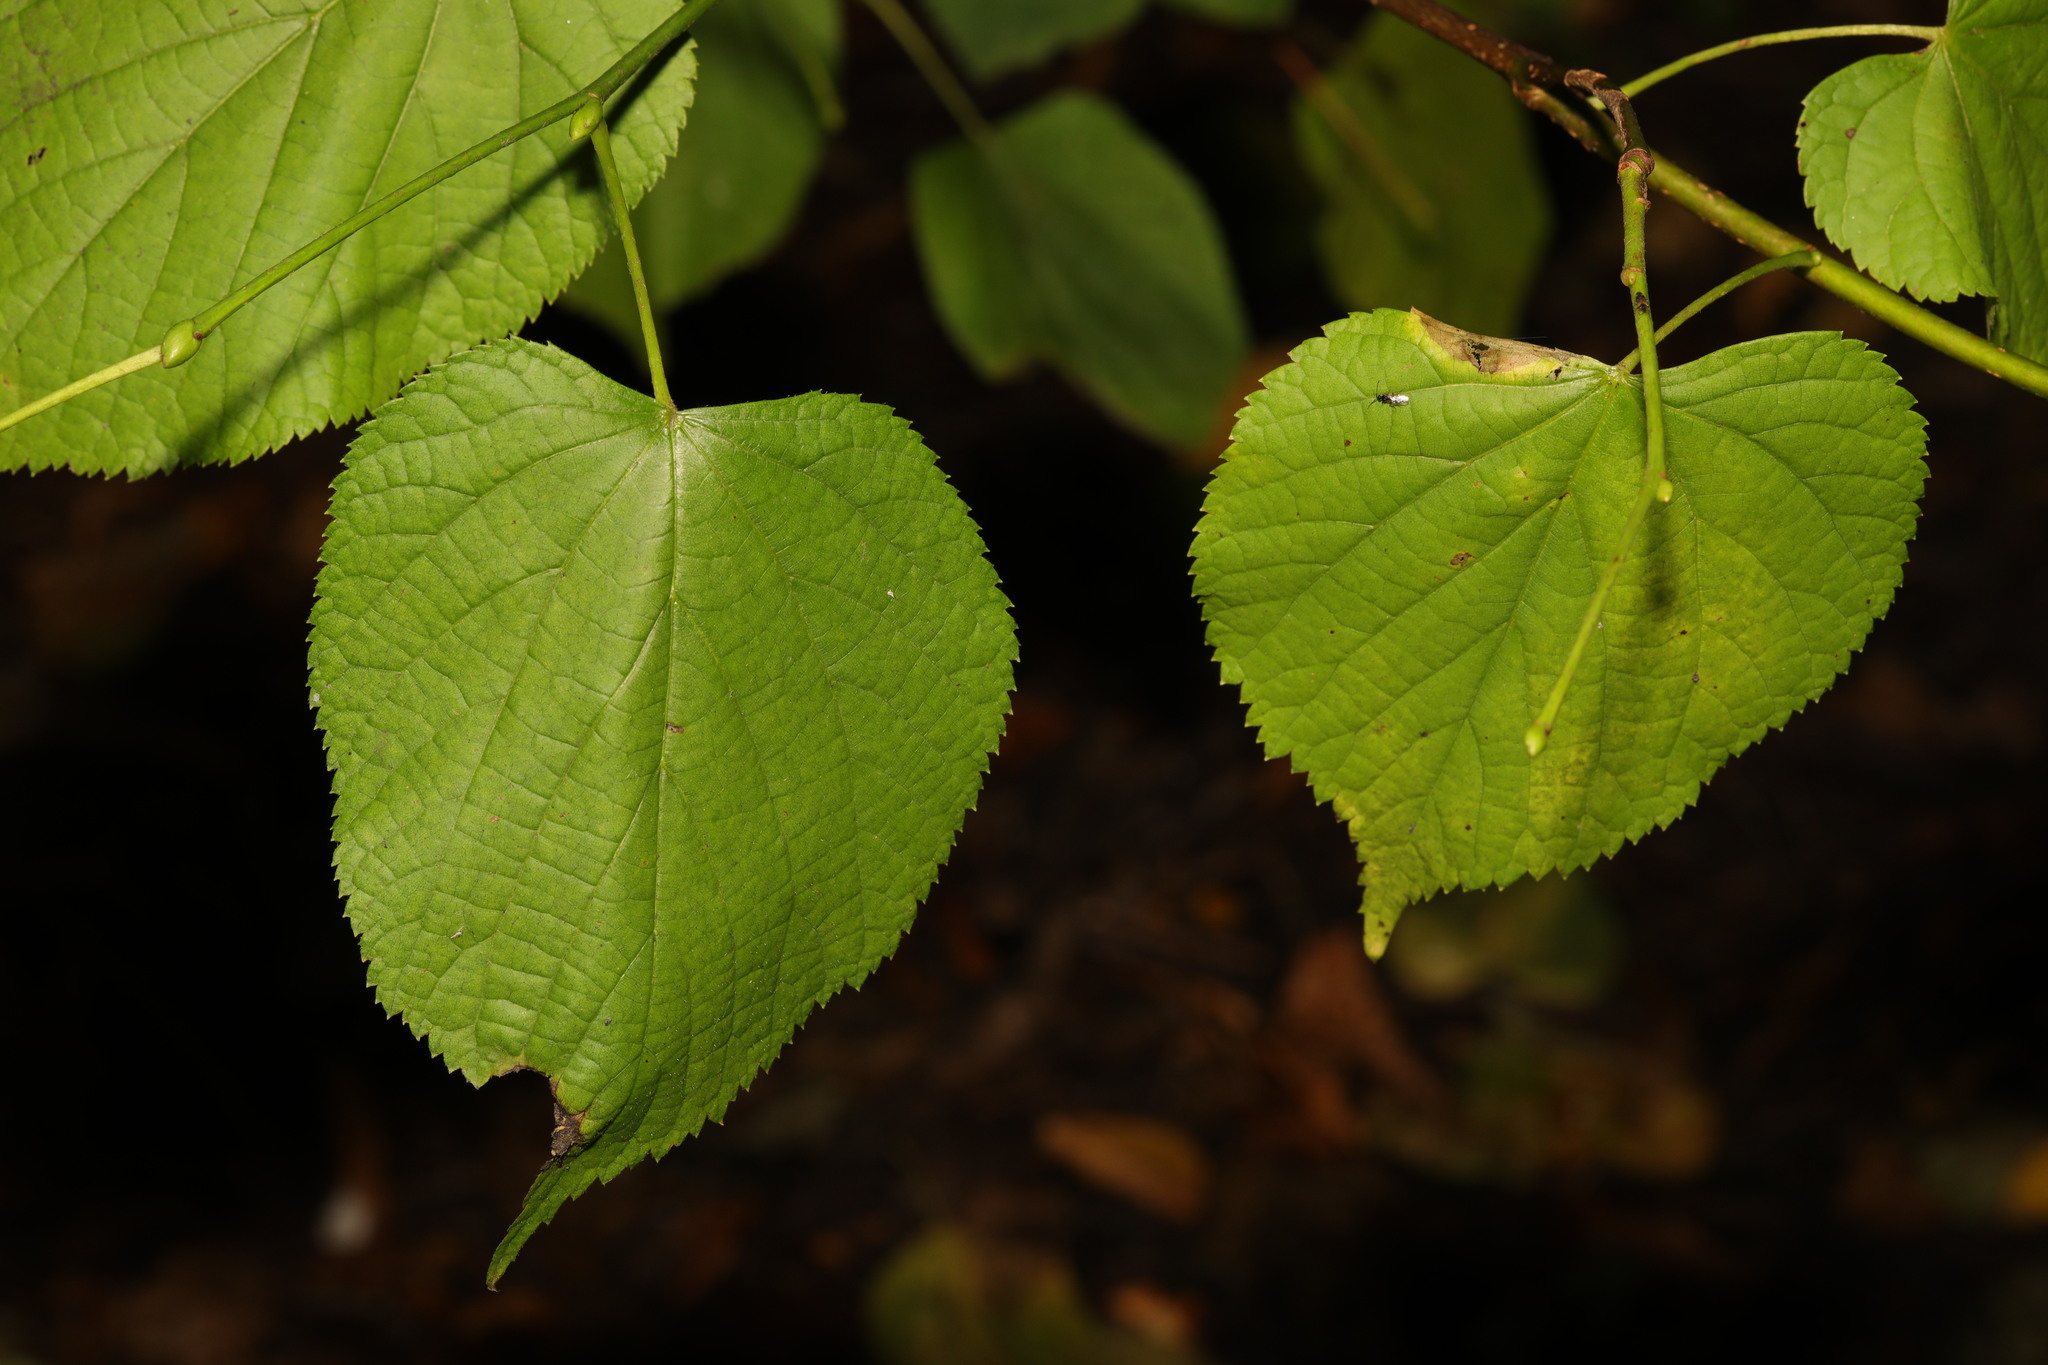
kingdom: Plantae
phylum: Tracheophyta
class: Magnoliopsida
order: Malvales
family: Malvaceae
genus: Tilia
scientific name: Tilia europaea
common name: European linden
